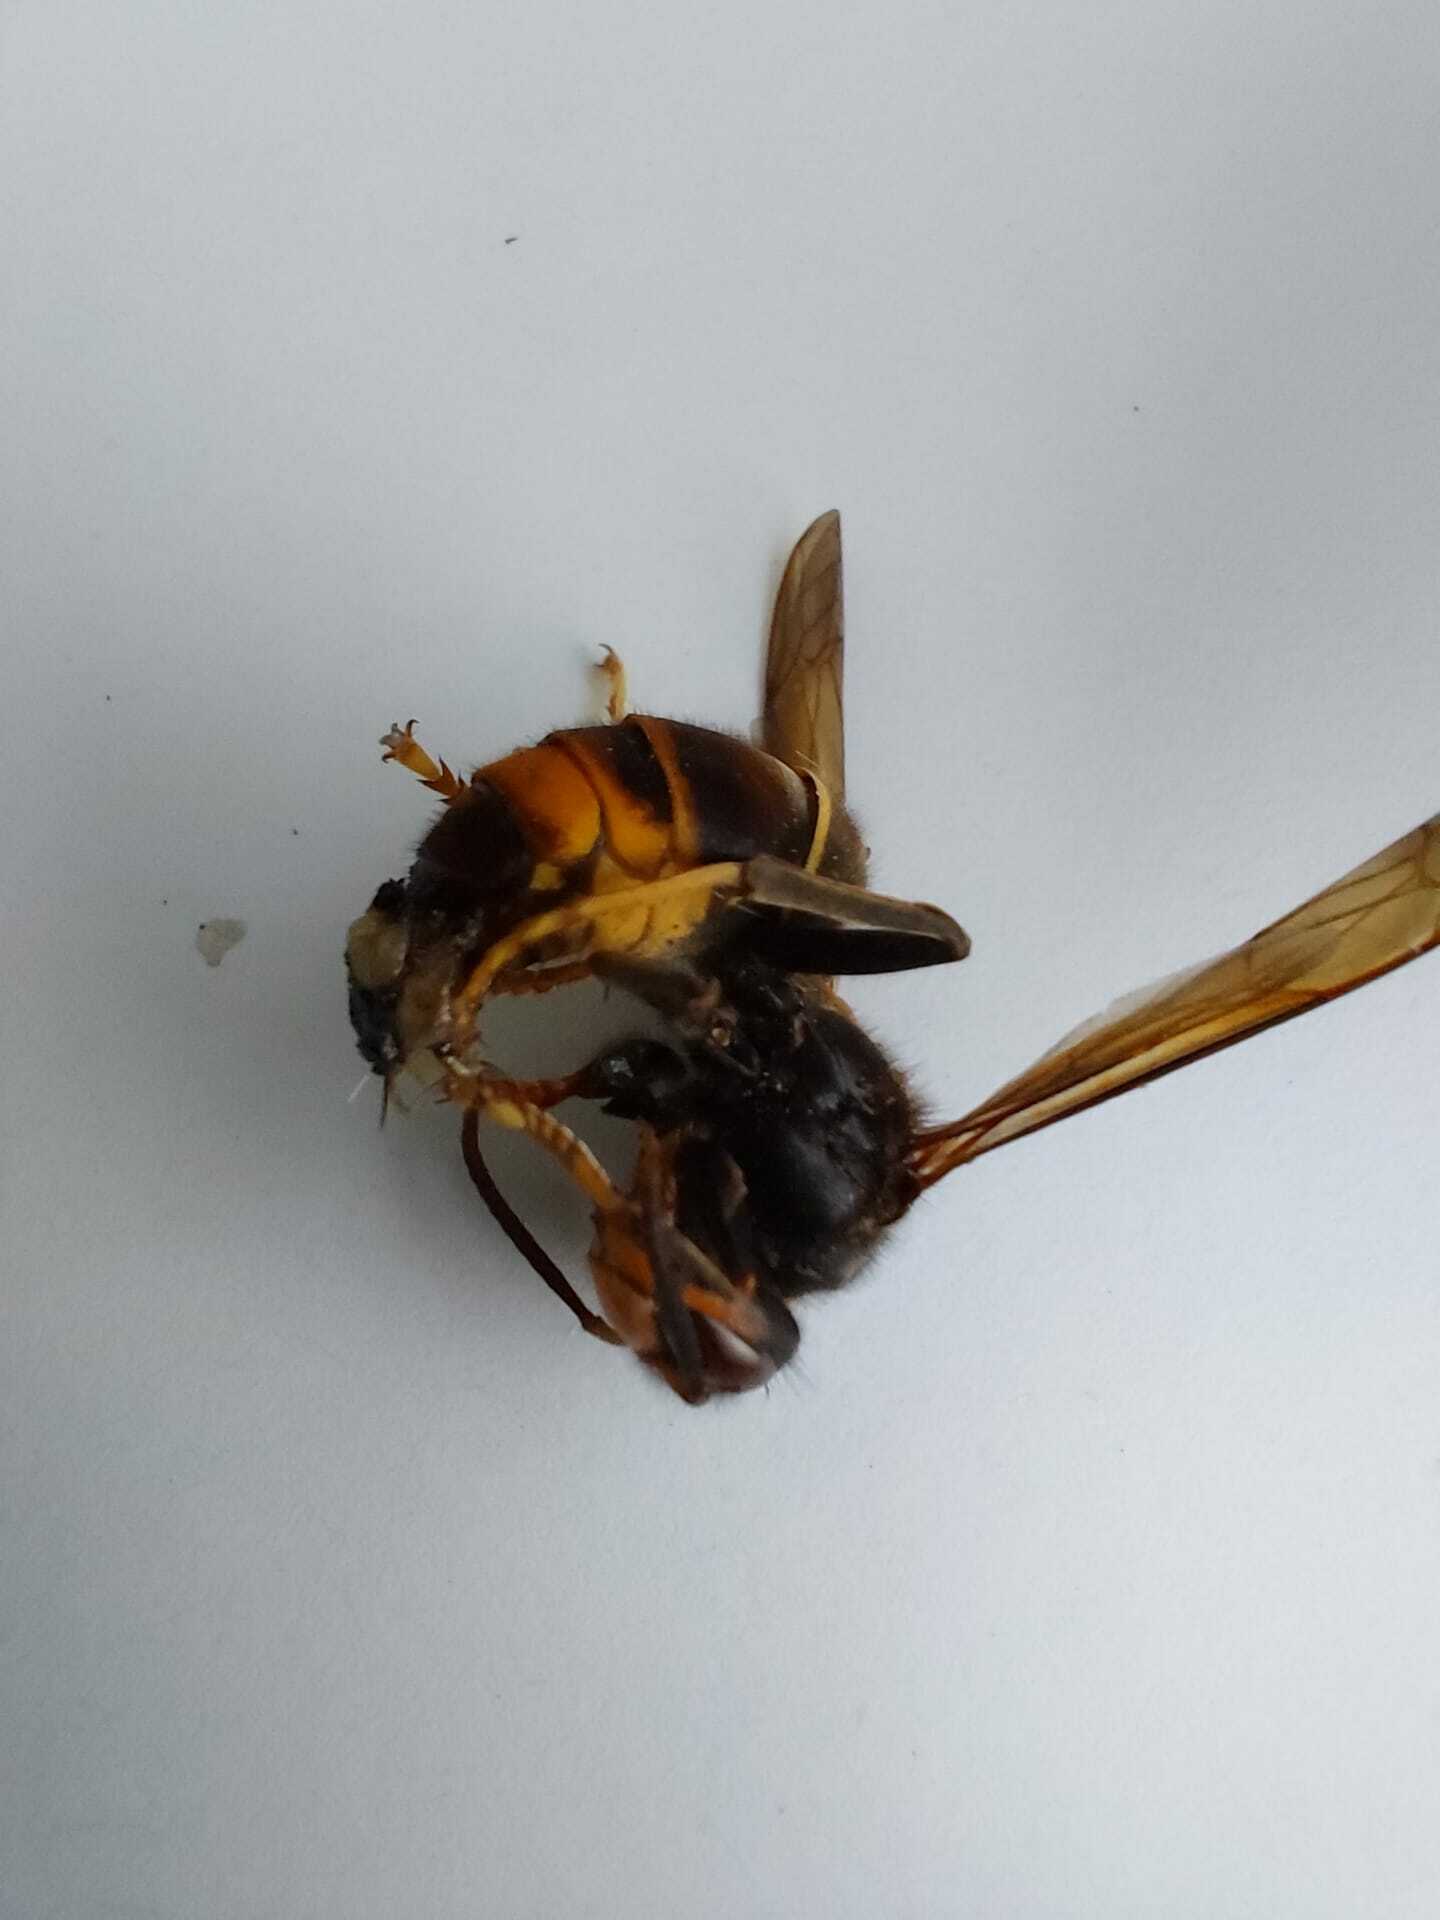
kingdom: Animalia
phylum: Arthropoda
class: Insecta
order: Hymenoptera
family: Vespidae
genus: Vespa
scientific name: Vespa velutina
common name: Asian hornet
